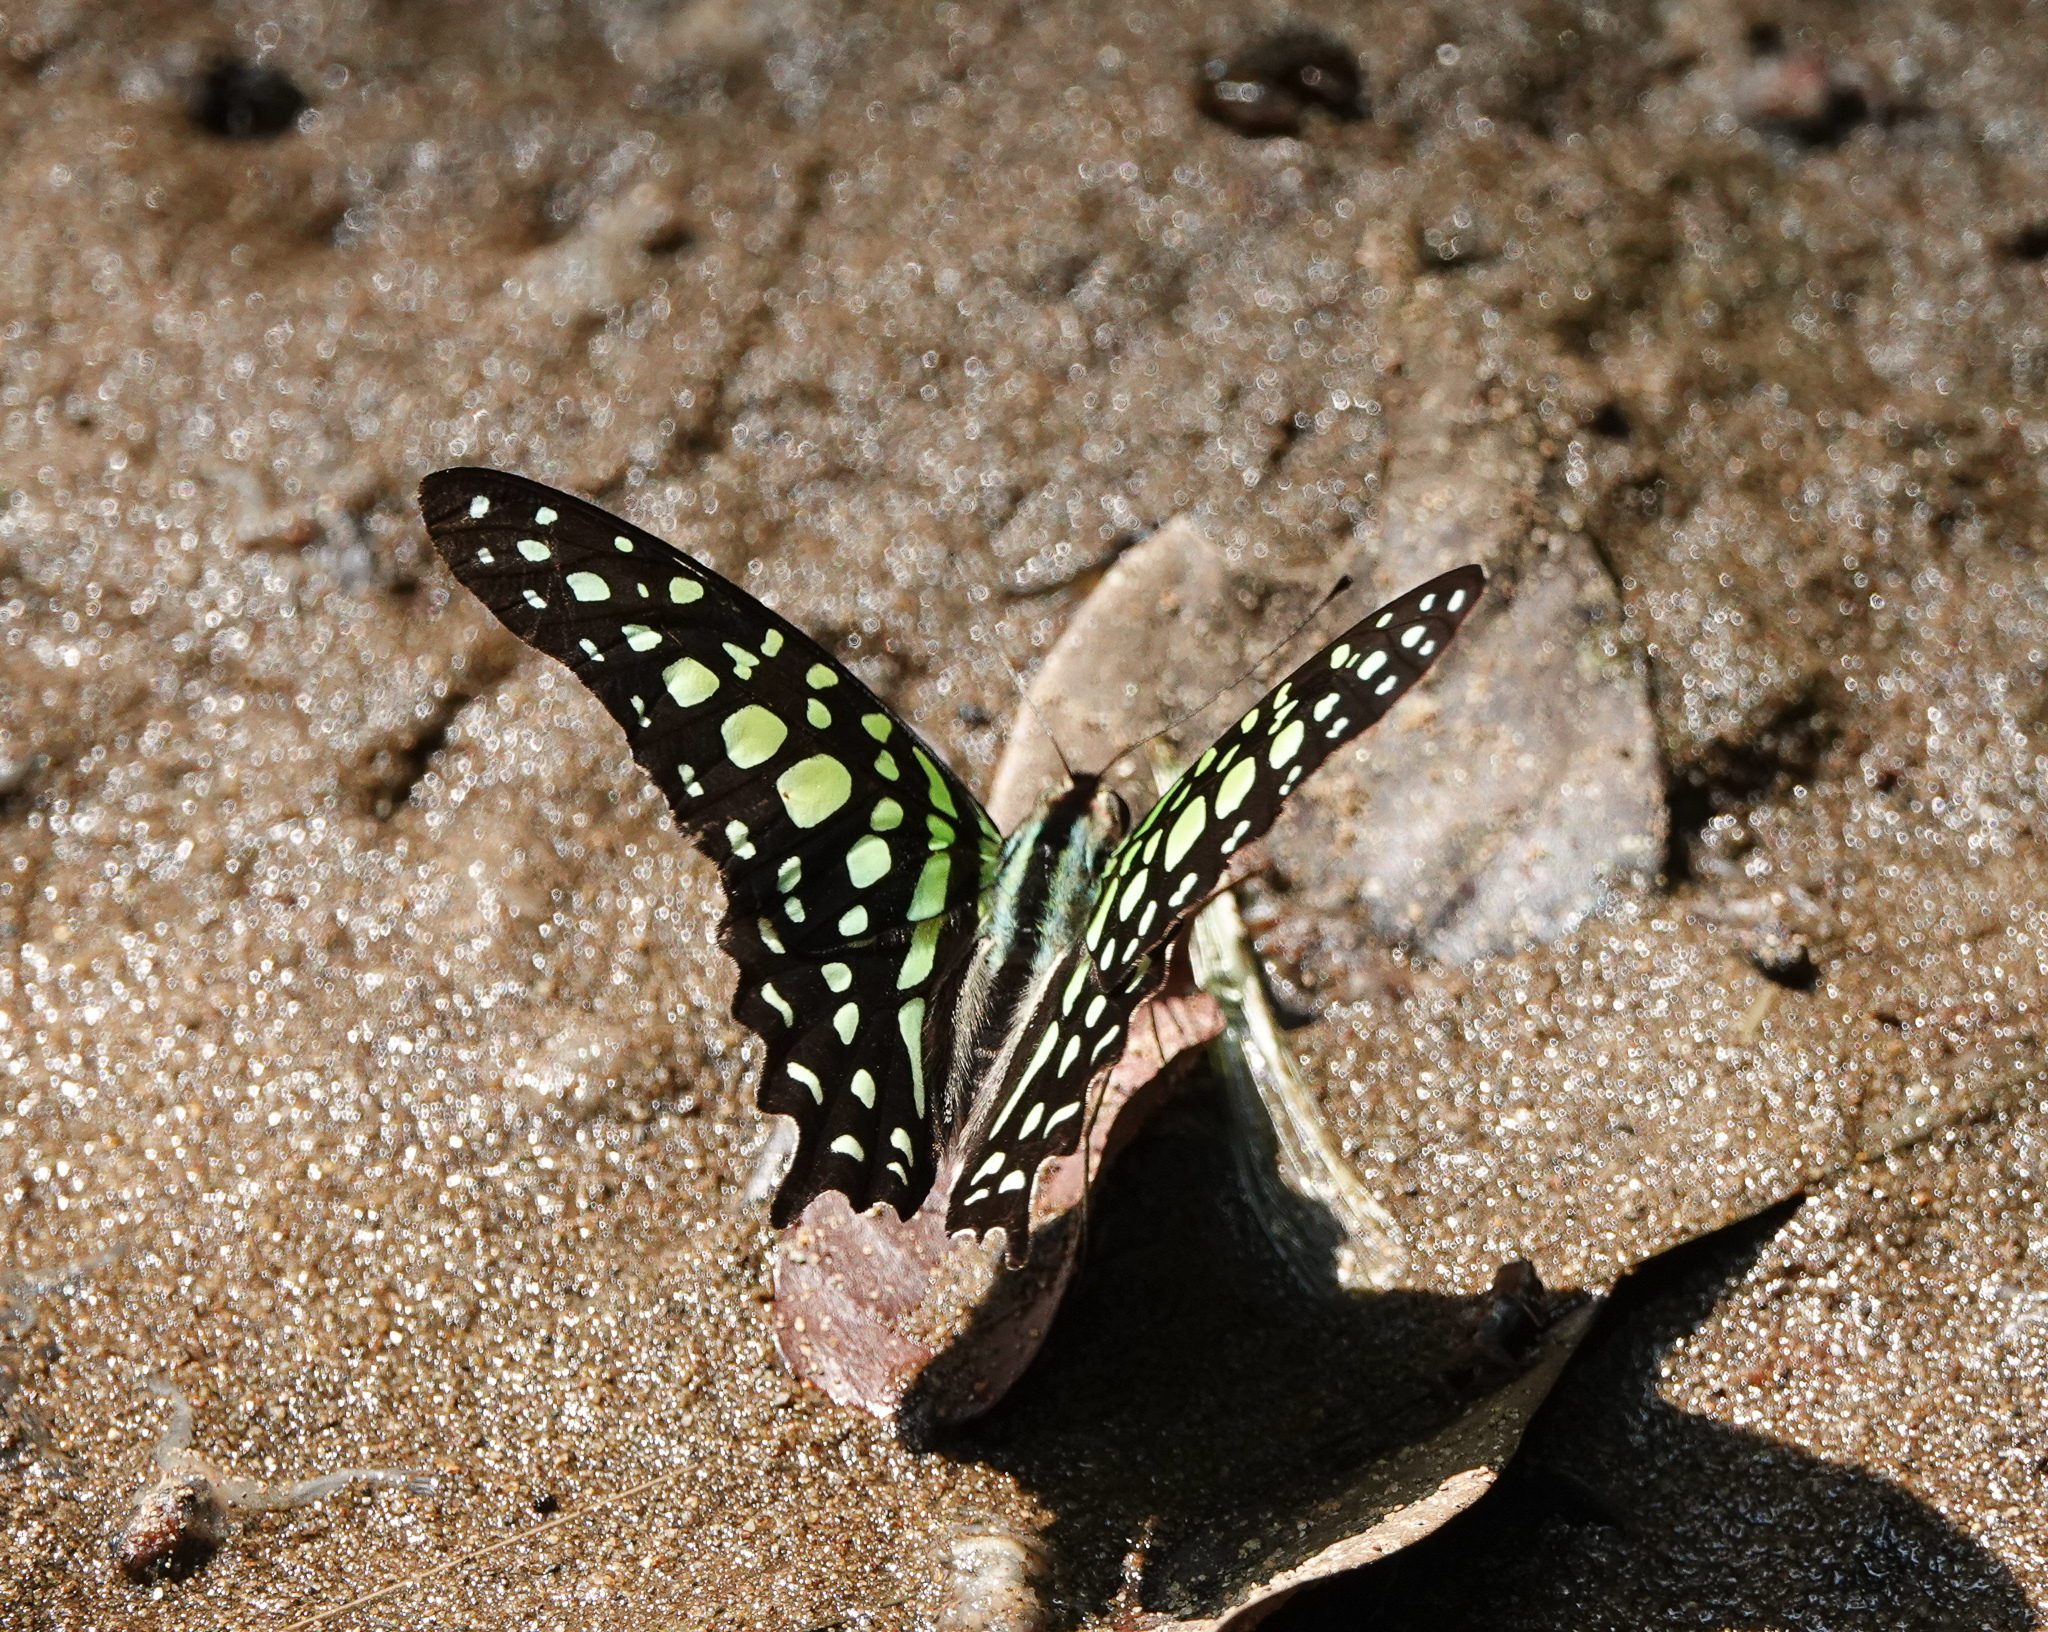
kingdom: Animalia
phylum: Arthropoda
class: Insecta
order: Lepidoptera
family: Papilionidae
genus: Graphium
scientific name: Graphium agamemnon
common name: Tailed jay
